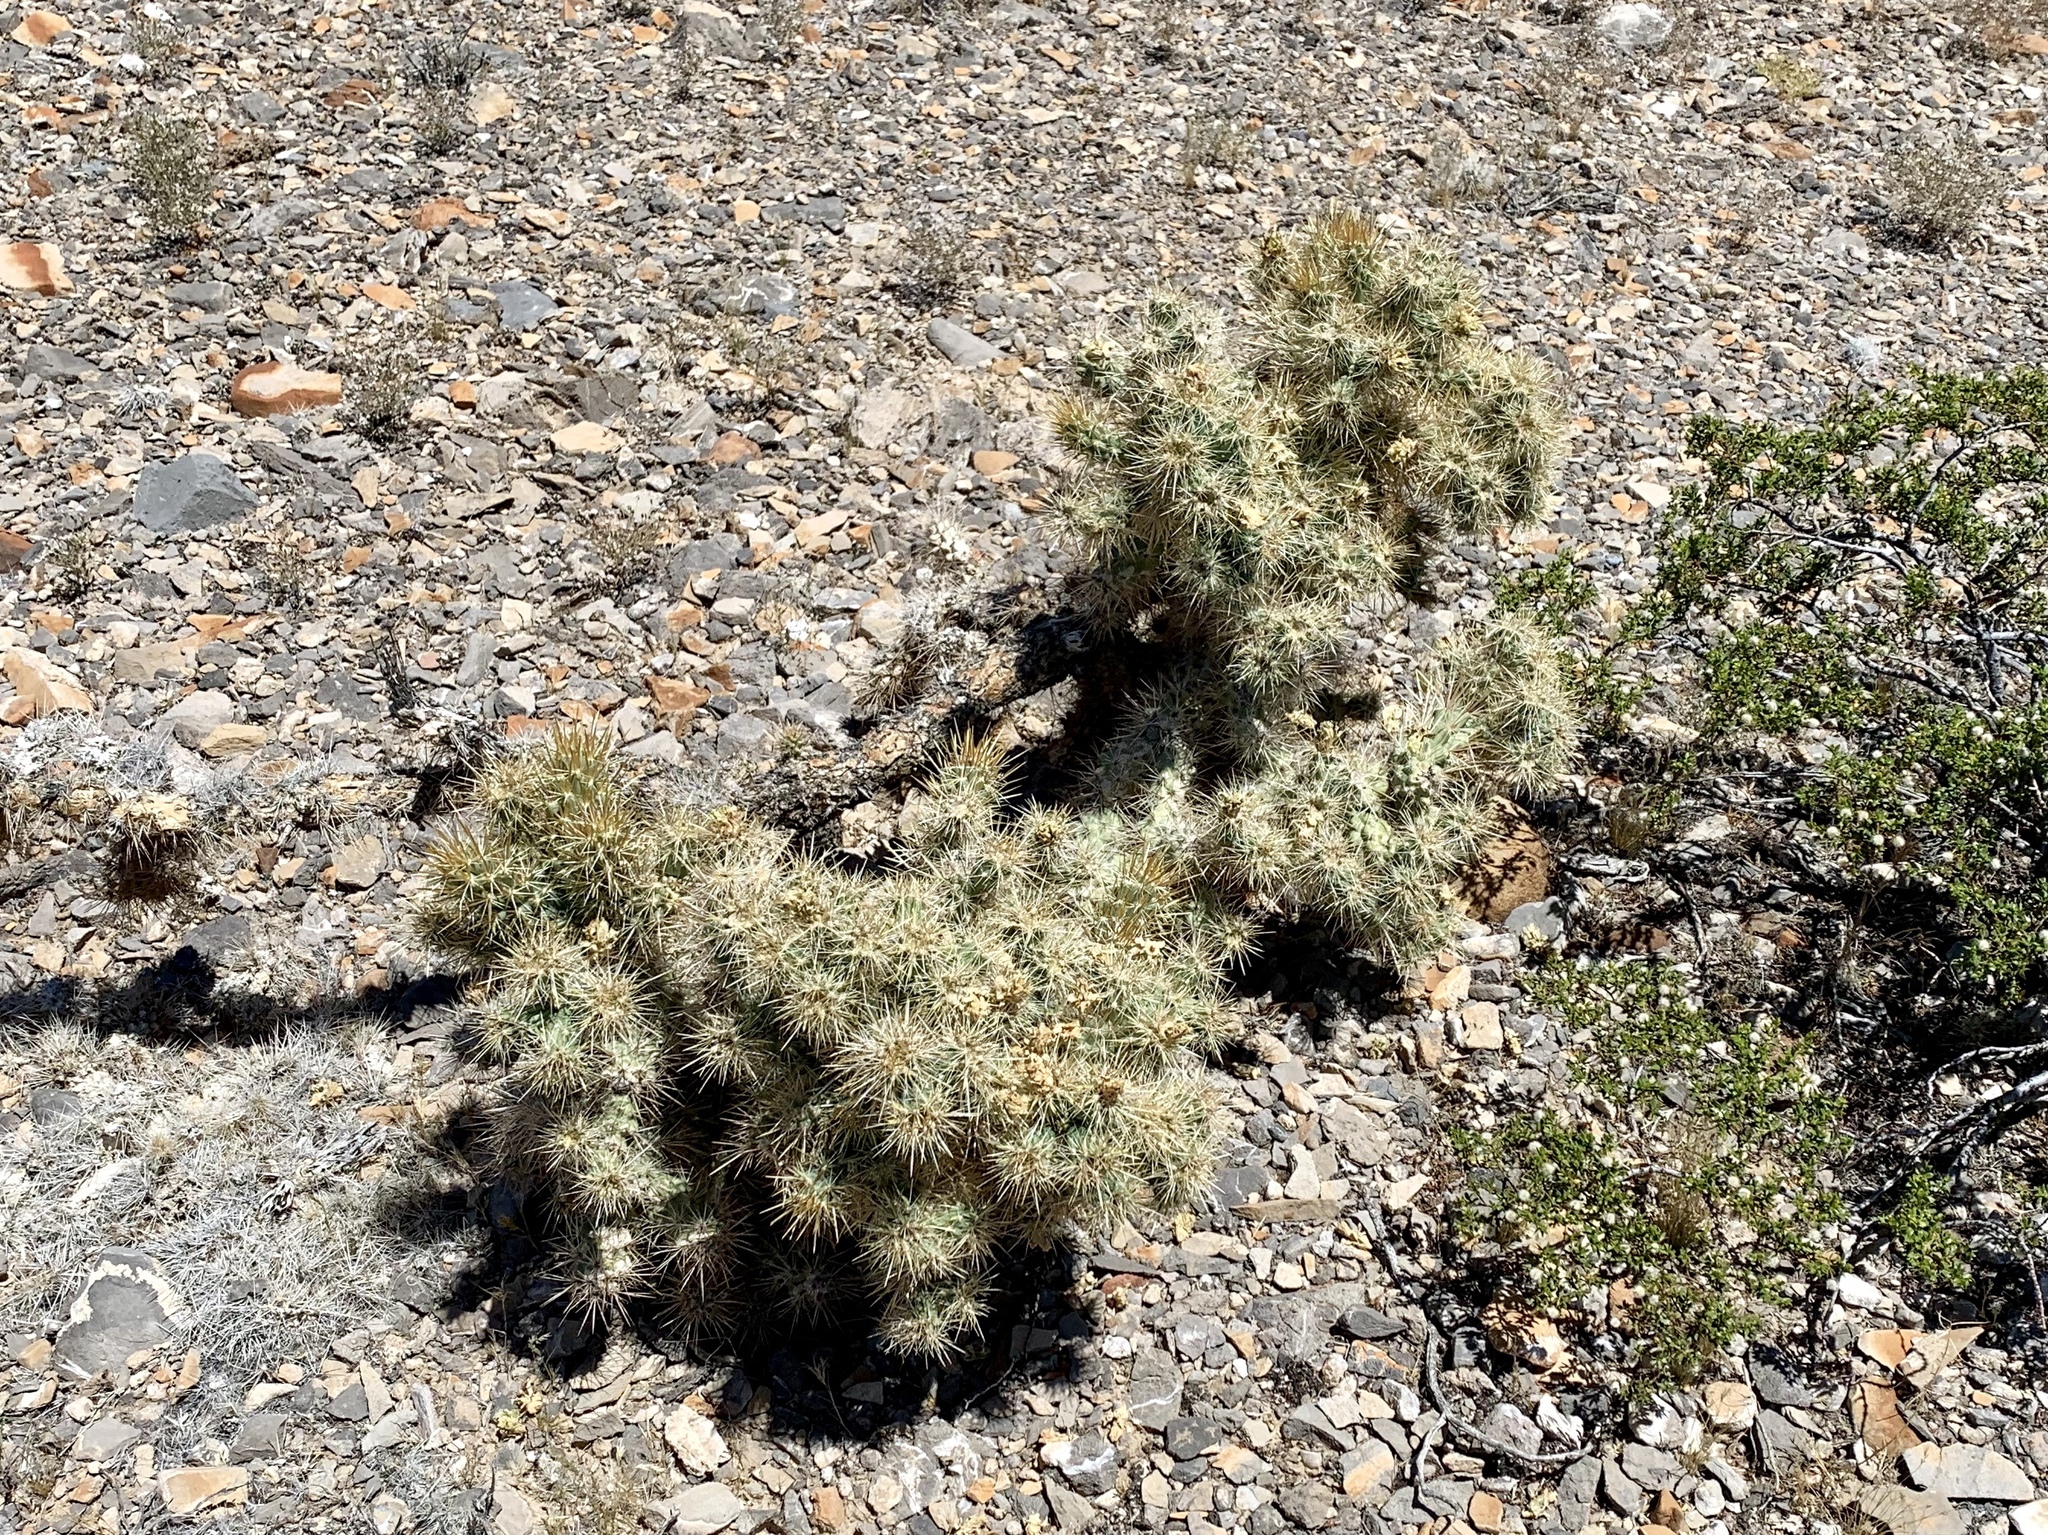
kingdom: Plantae
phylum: Tracheophyta
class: Magnoliopsida
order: Caryophyllales
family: Cactaceae
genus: Cylindropuntia
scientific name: Cylindropuntia echinocarpa
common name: Ground cholla
